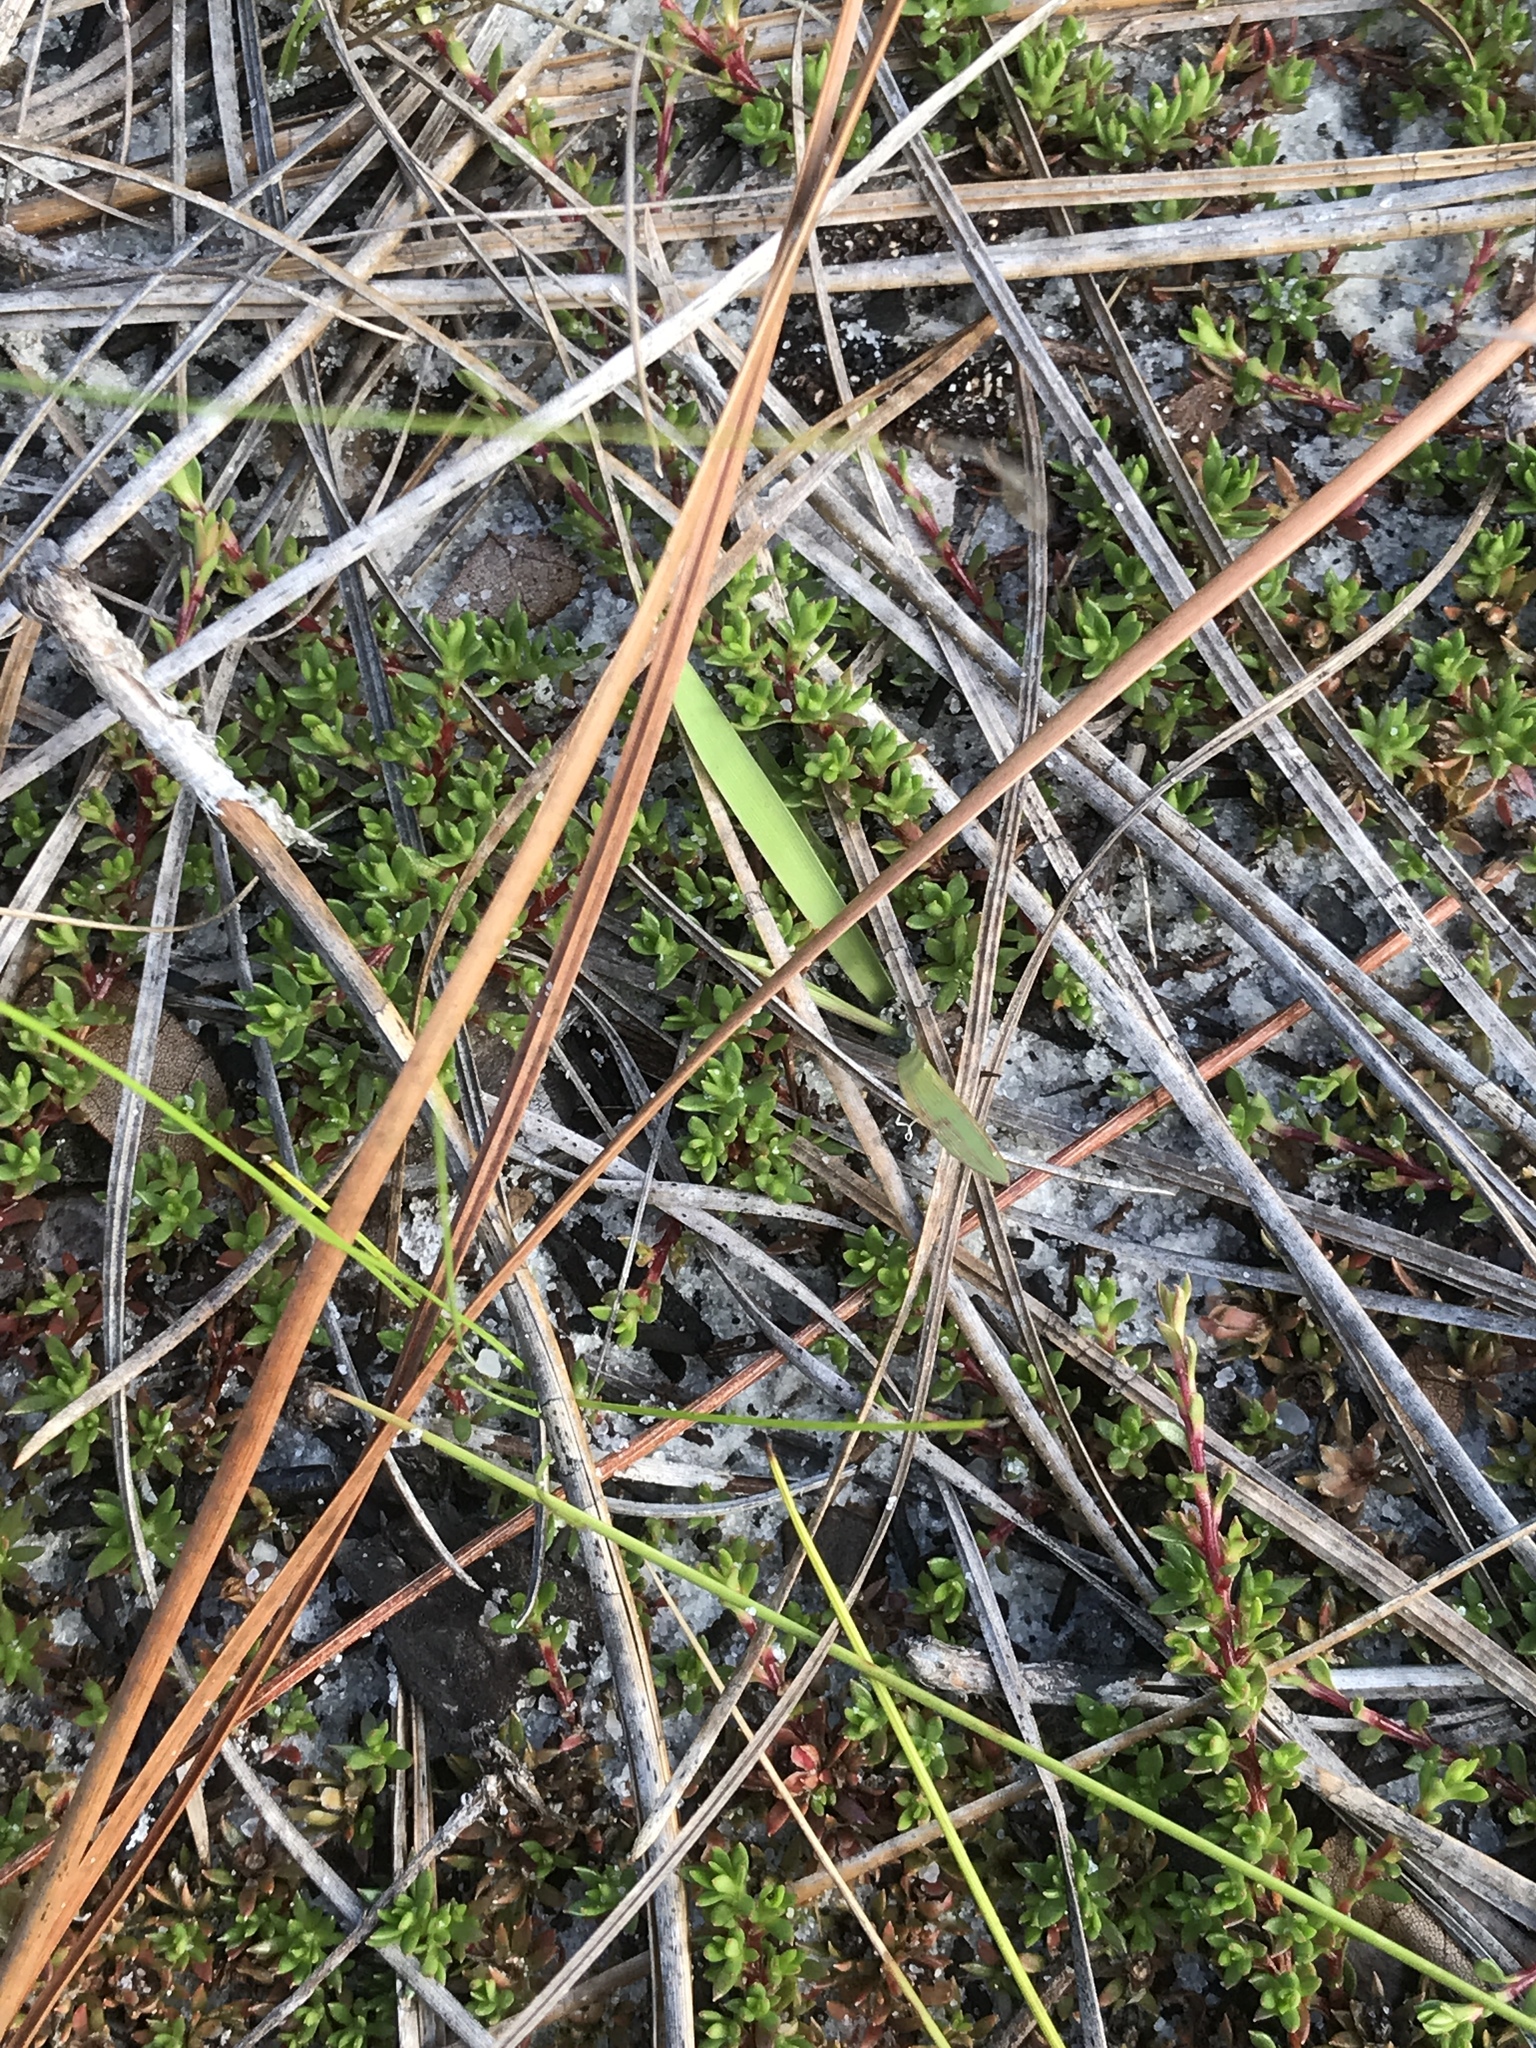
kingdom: Plantae
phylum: Tracheophyta
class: Magnoliopsida
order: Ericales
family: Diapensiaceae
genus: Pyxidanthera
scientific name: Pyxidanthera barbulata
